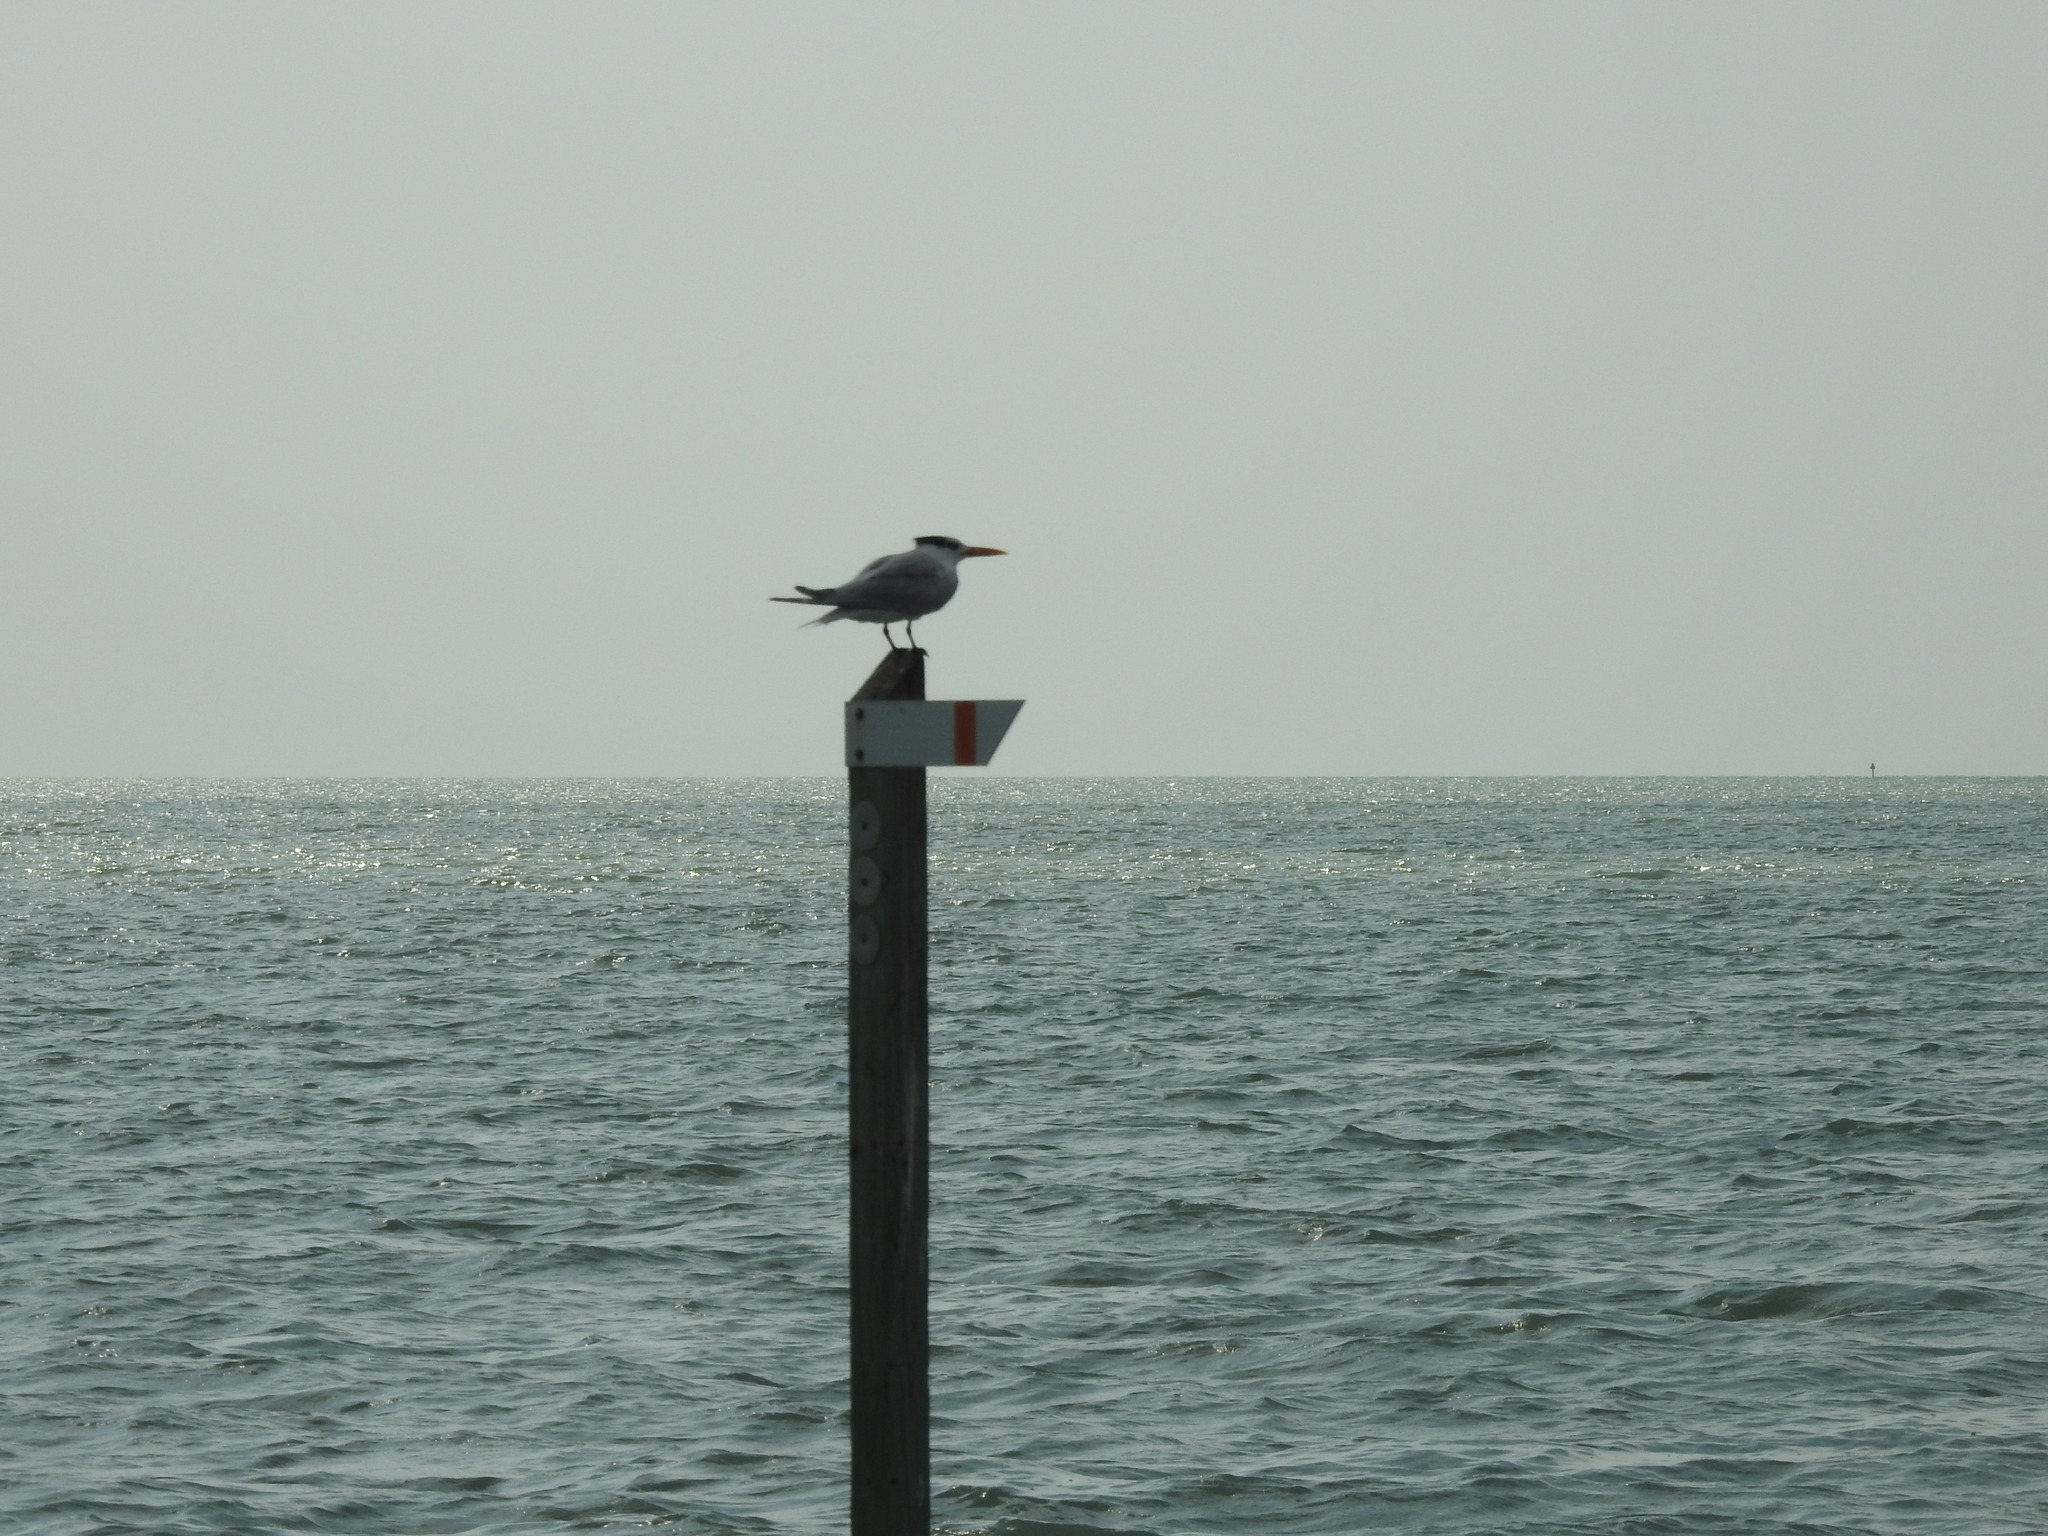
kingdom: Animalia
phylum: Chordata
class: Aves
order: Charadriiformes
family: Laridae
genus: Thalasseus
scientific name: Thalasseus maximus
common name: Royal tern
